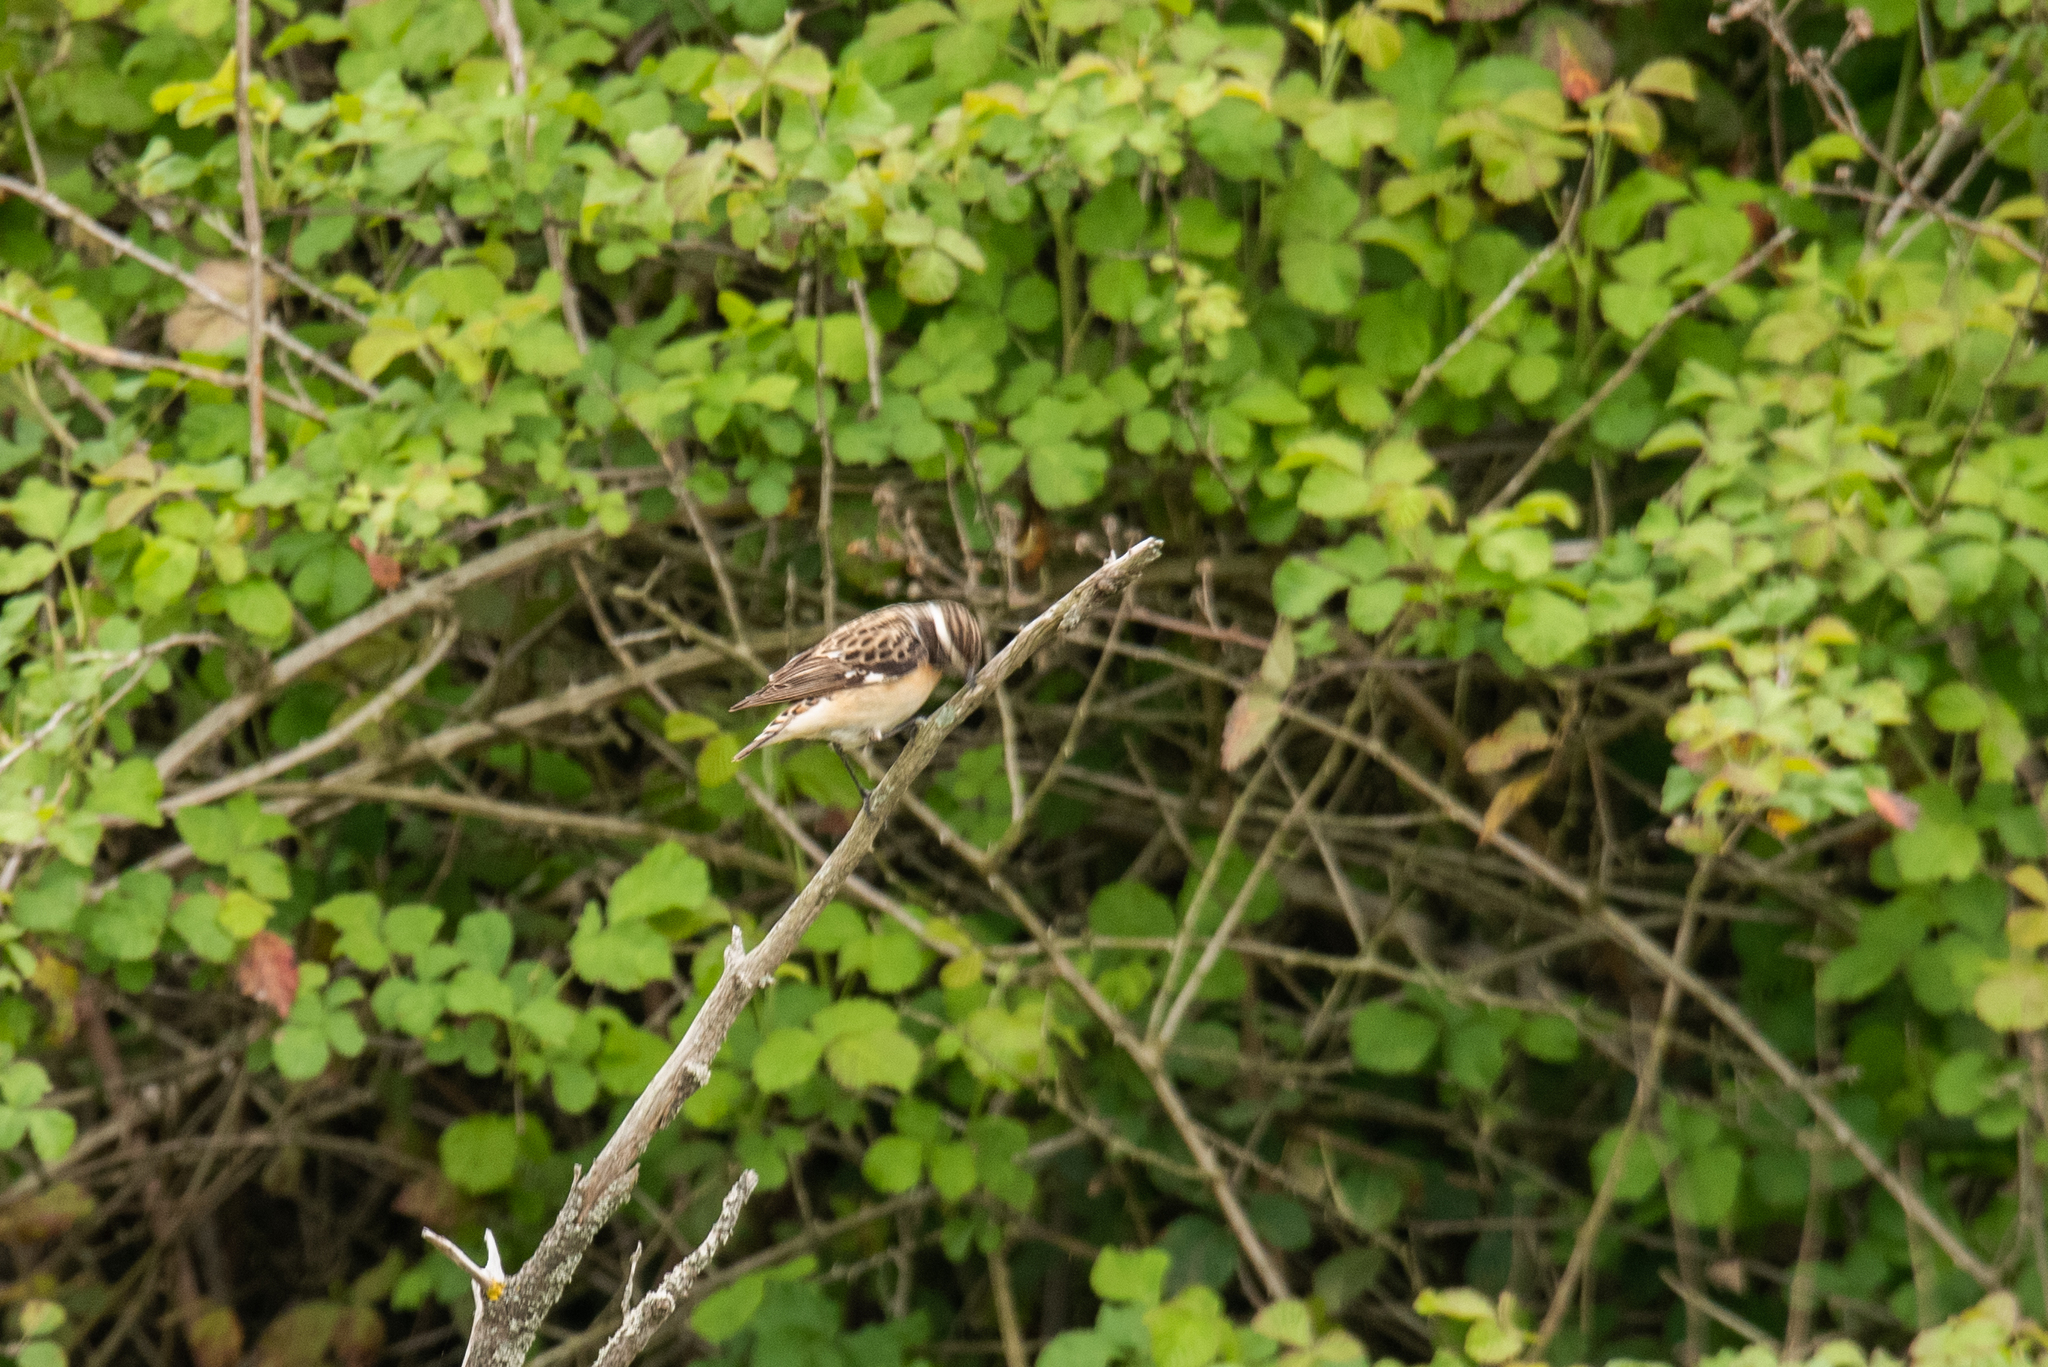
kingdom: Animalia
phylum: Chordata
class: Aves
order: Passeriformes
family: Muscicapidae
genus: Saxicola
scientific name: Saxicola rubetra
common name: Whinchat
